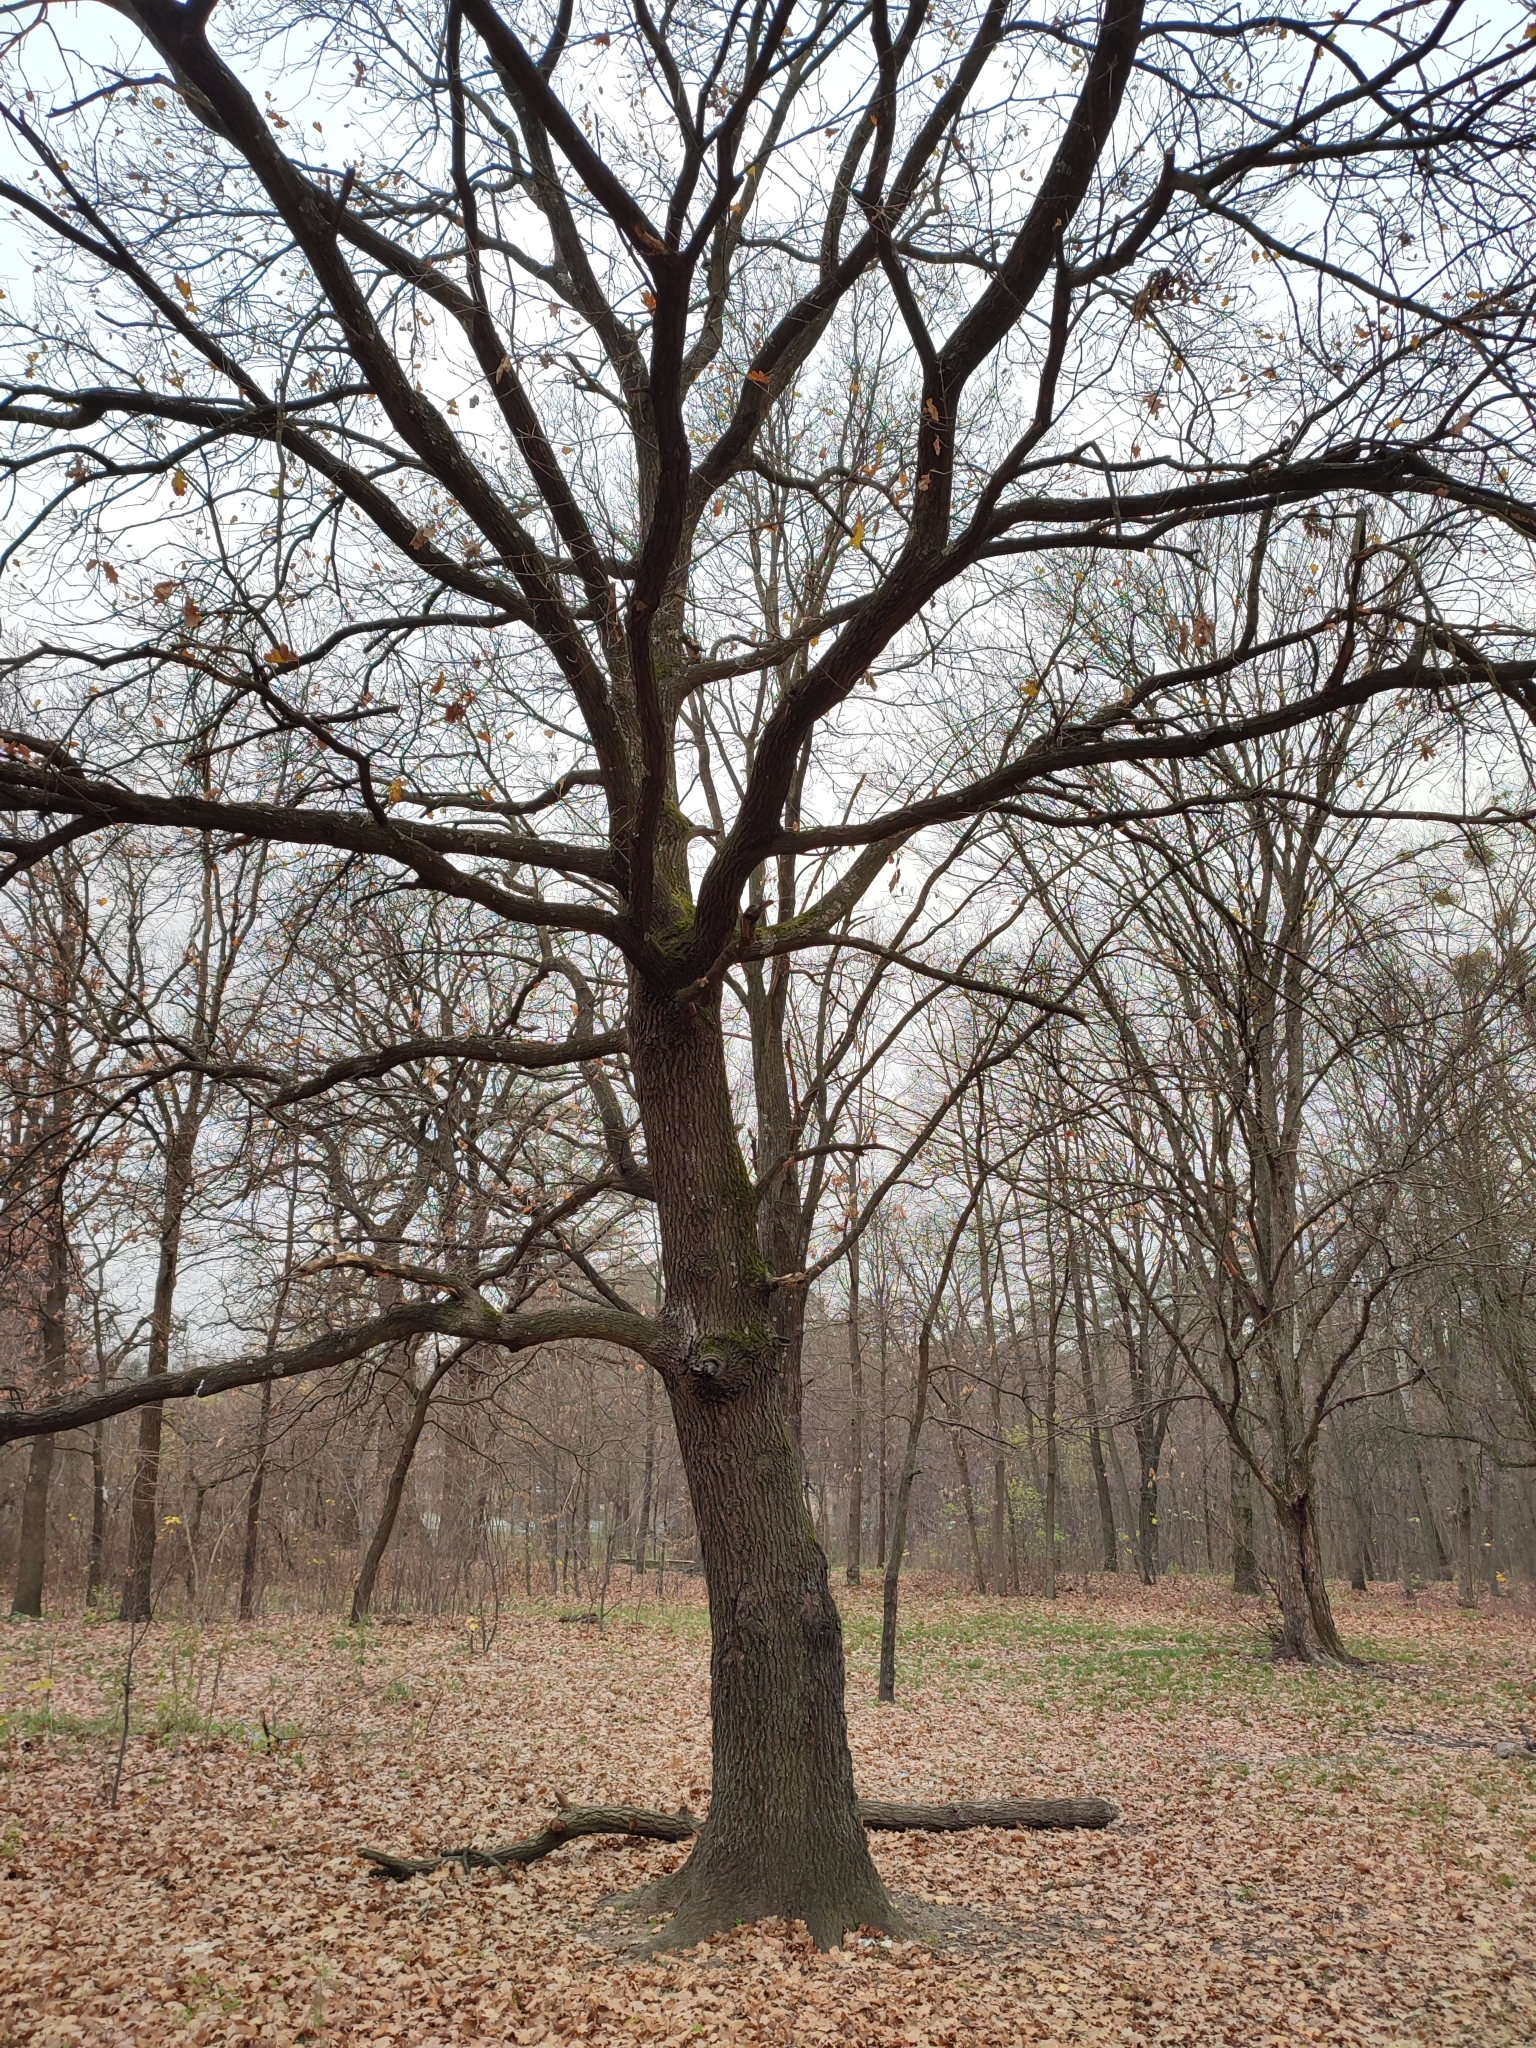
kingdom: Plantae
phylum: Tracheophyta
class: Magnoliopsida
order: Fagales
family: Fagaceae
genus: Quercus
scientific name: Quercus robur
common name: Pedunculate oak
